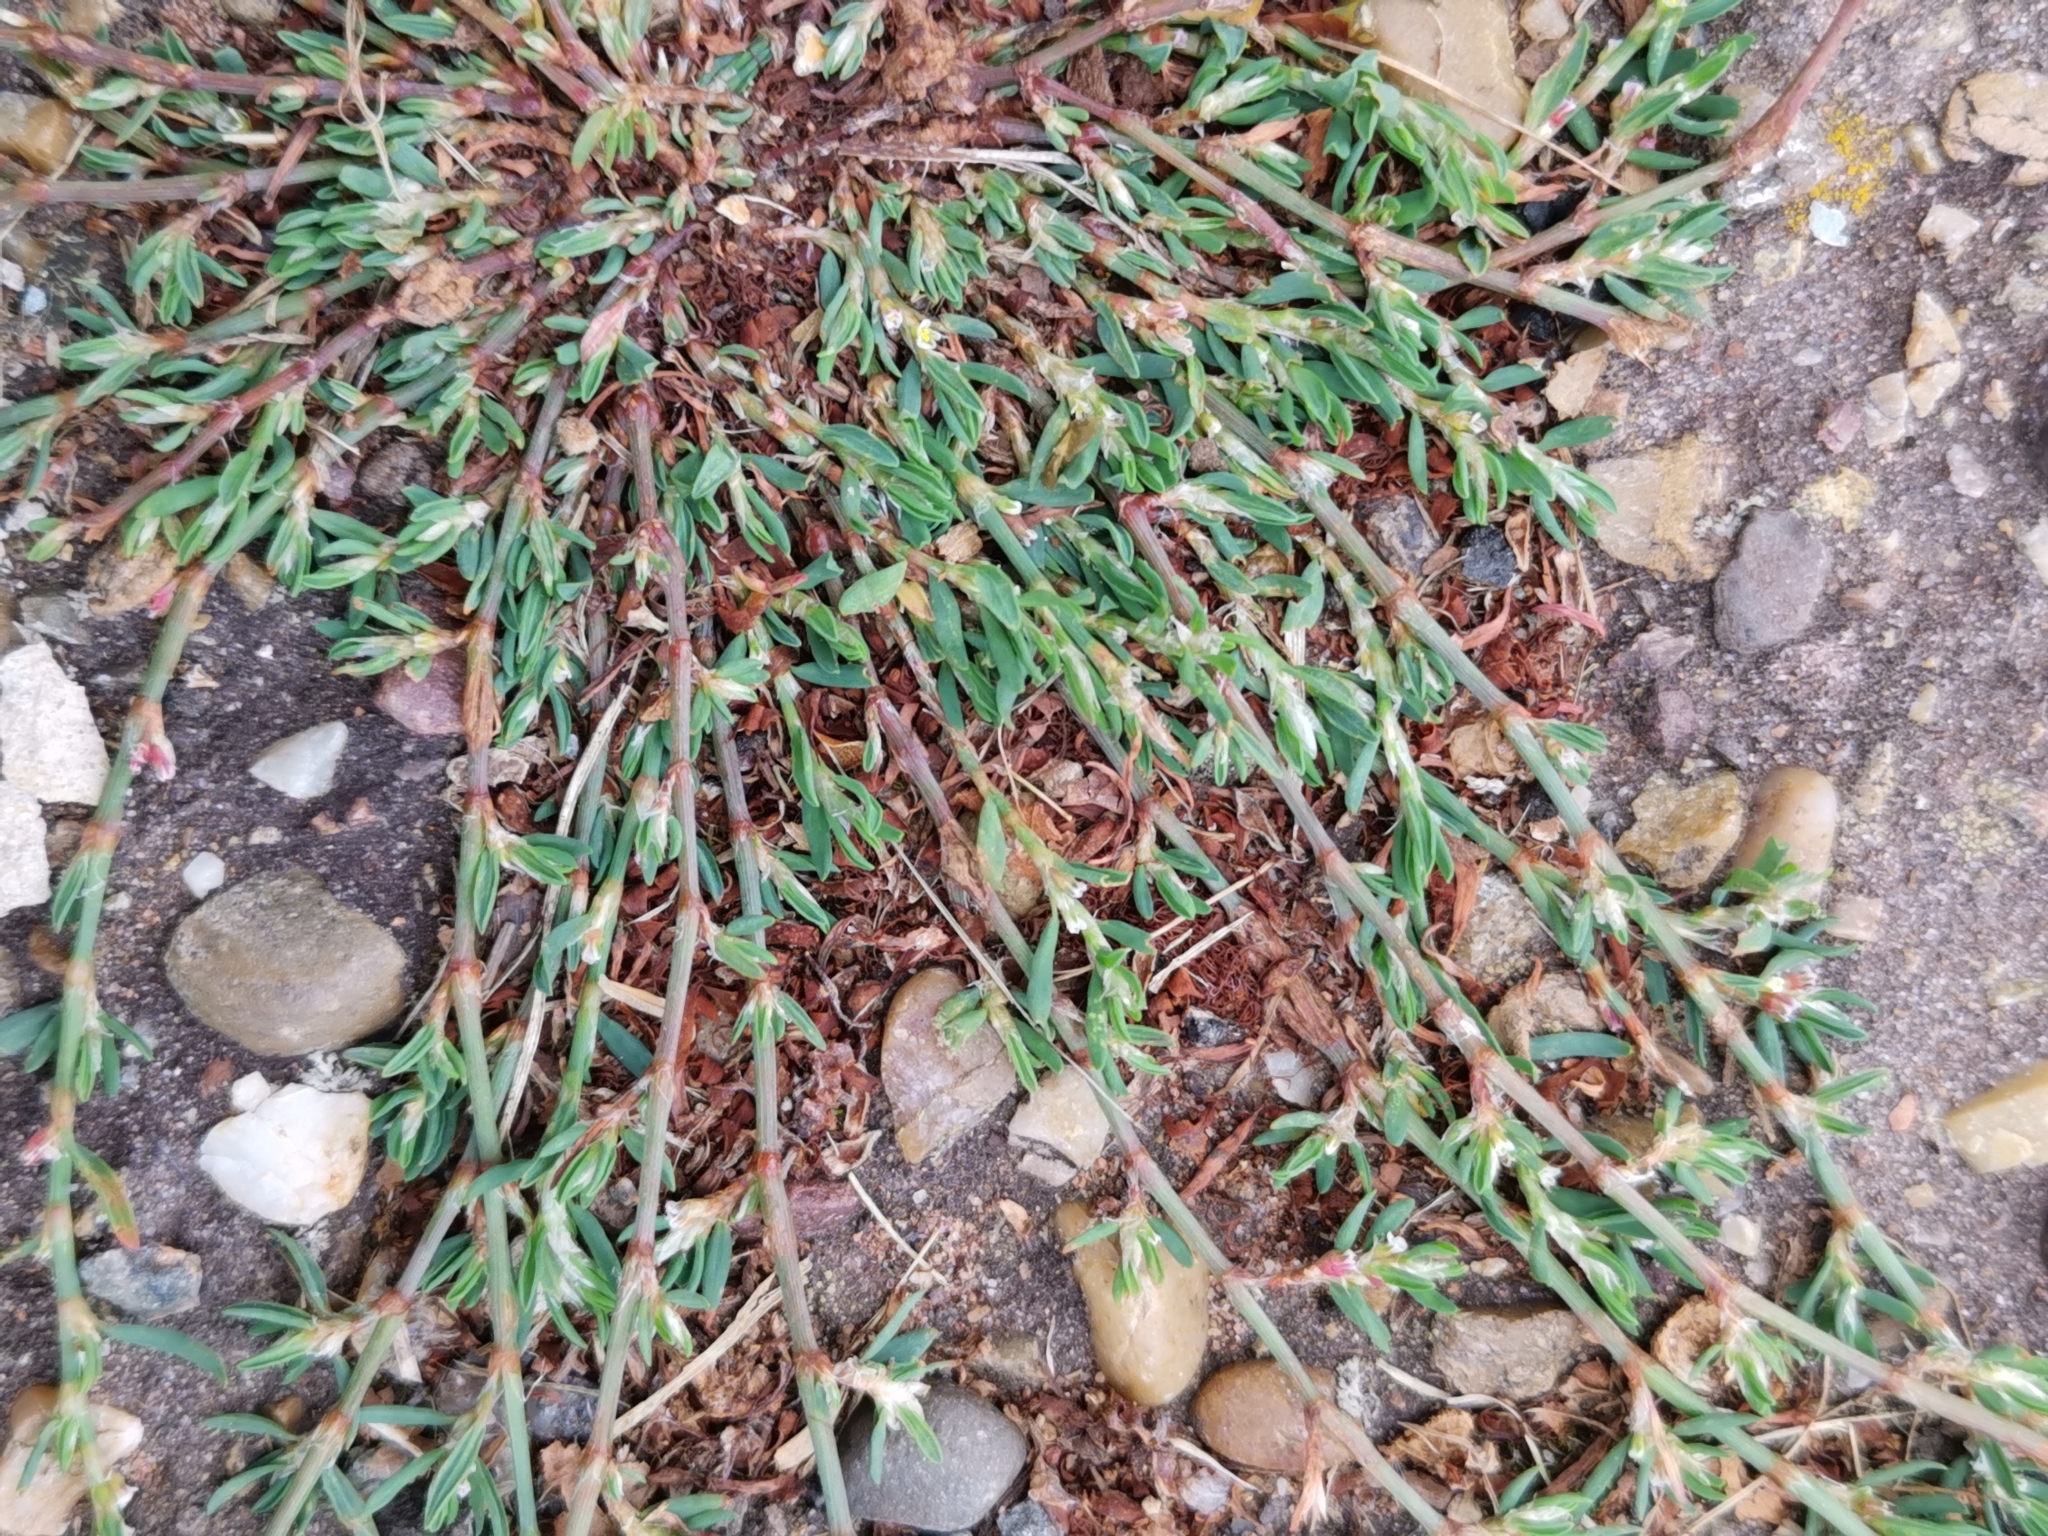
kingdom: Plantae
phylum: Tracheophyta
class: Magnoliopsida
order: Caryophyllales
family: Polygonaceae
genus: Polygonum
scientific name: Polygonum aviculare
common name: Prostrate knotweed
